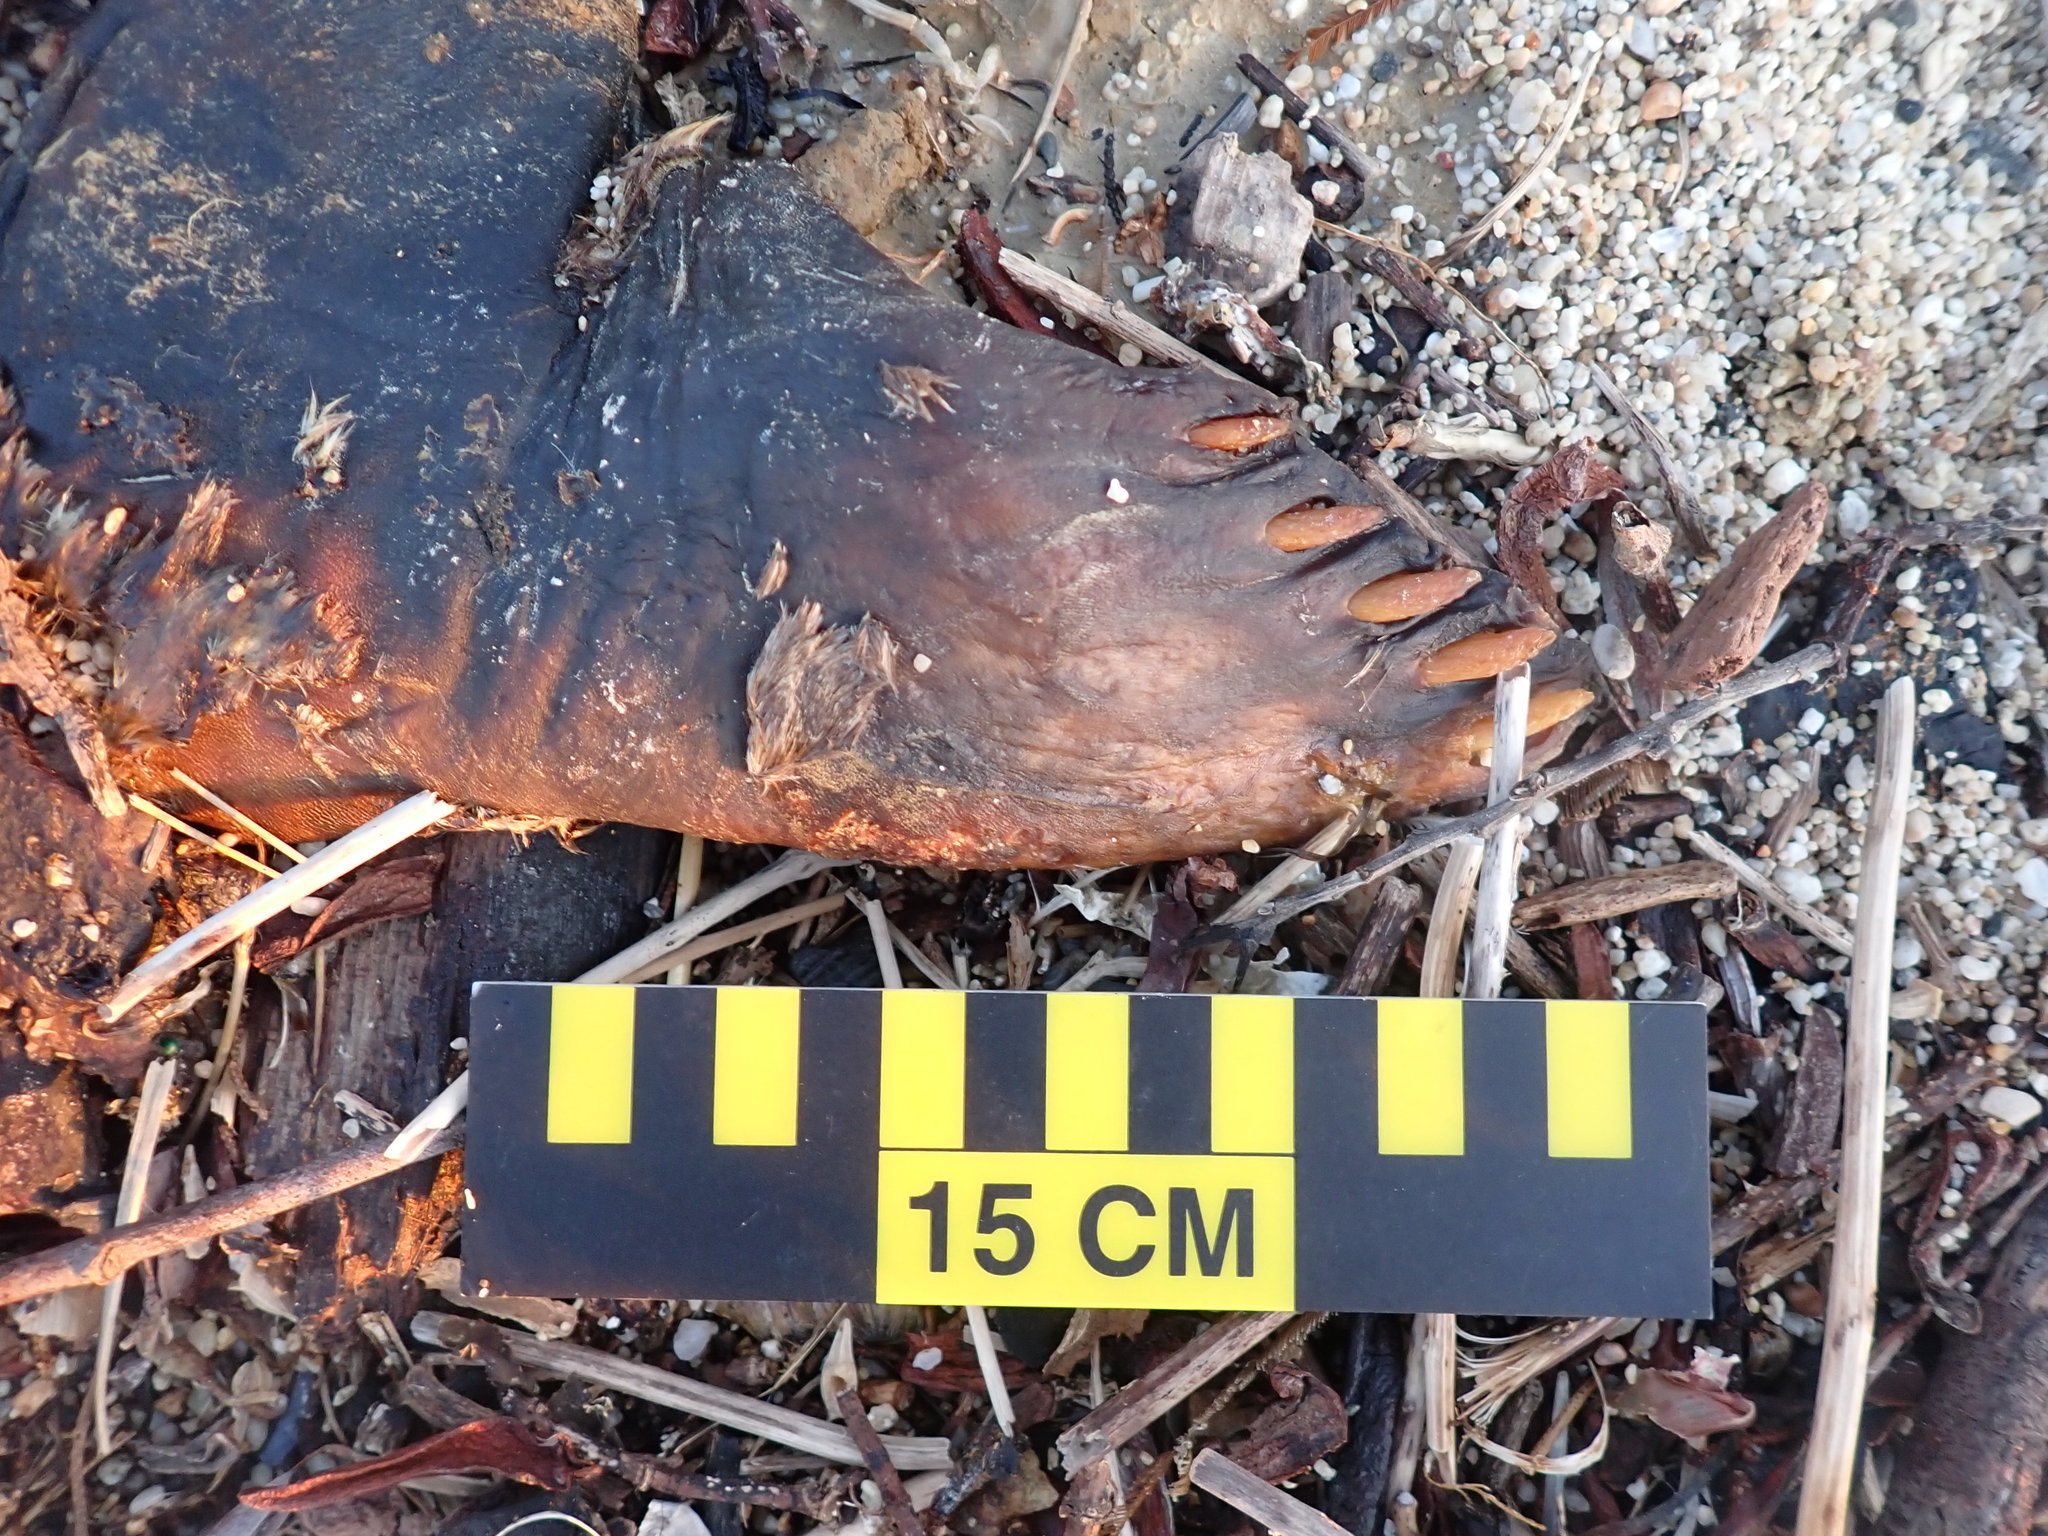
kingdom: Animalia
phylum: Chordata
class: Mammalia
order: Carnivora
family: Phocidae
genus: Phoca
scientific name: Phoca vitulina
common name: Harbor seal
